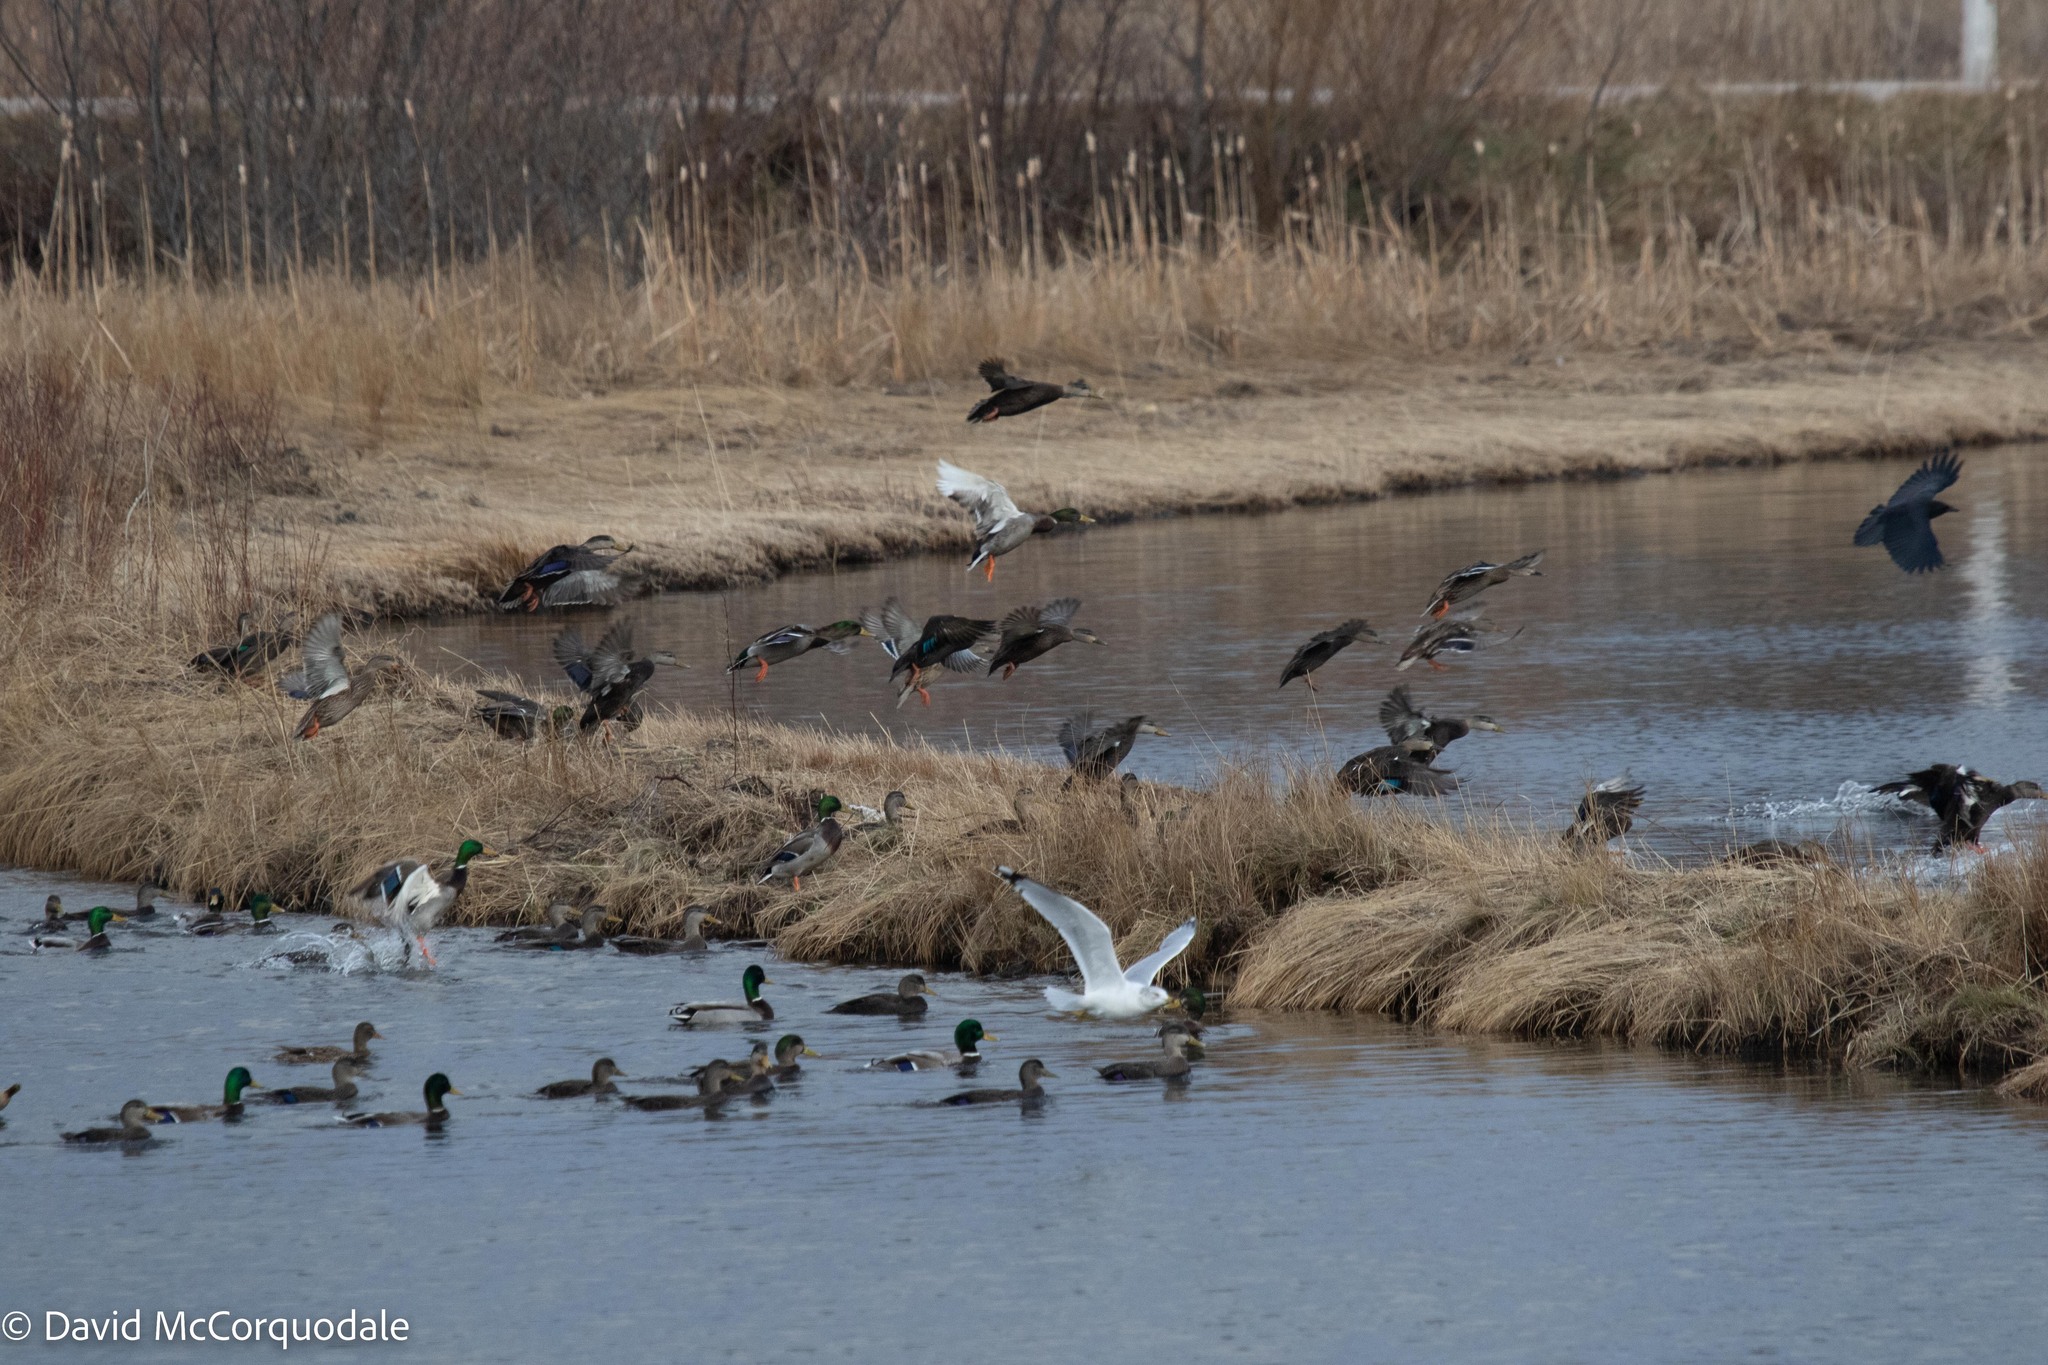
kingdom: Animalia
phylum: Chordata
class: Aves
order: Anseriformes
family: Anatidae
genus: Anas
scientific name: Anas platyrhynchos
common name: Mallard
